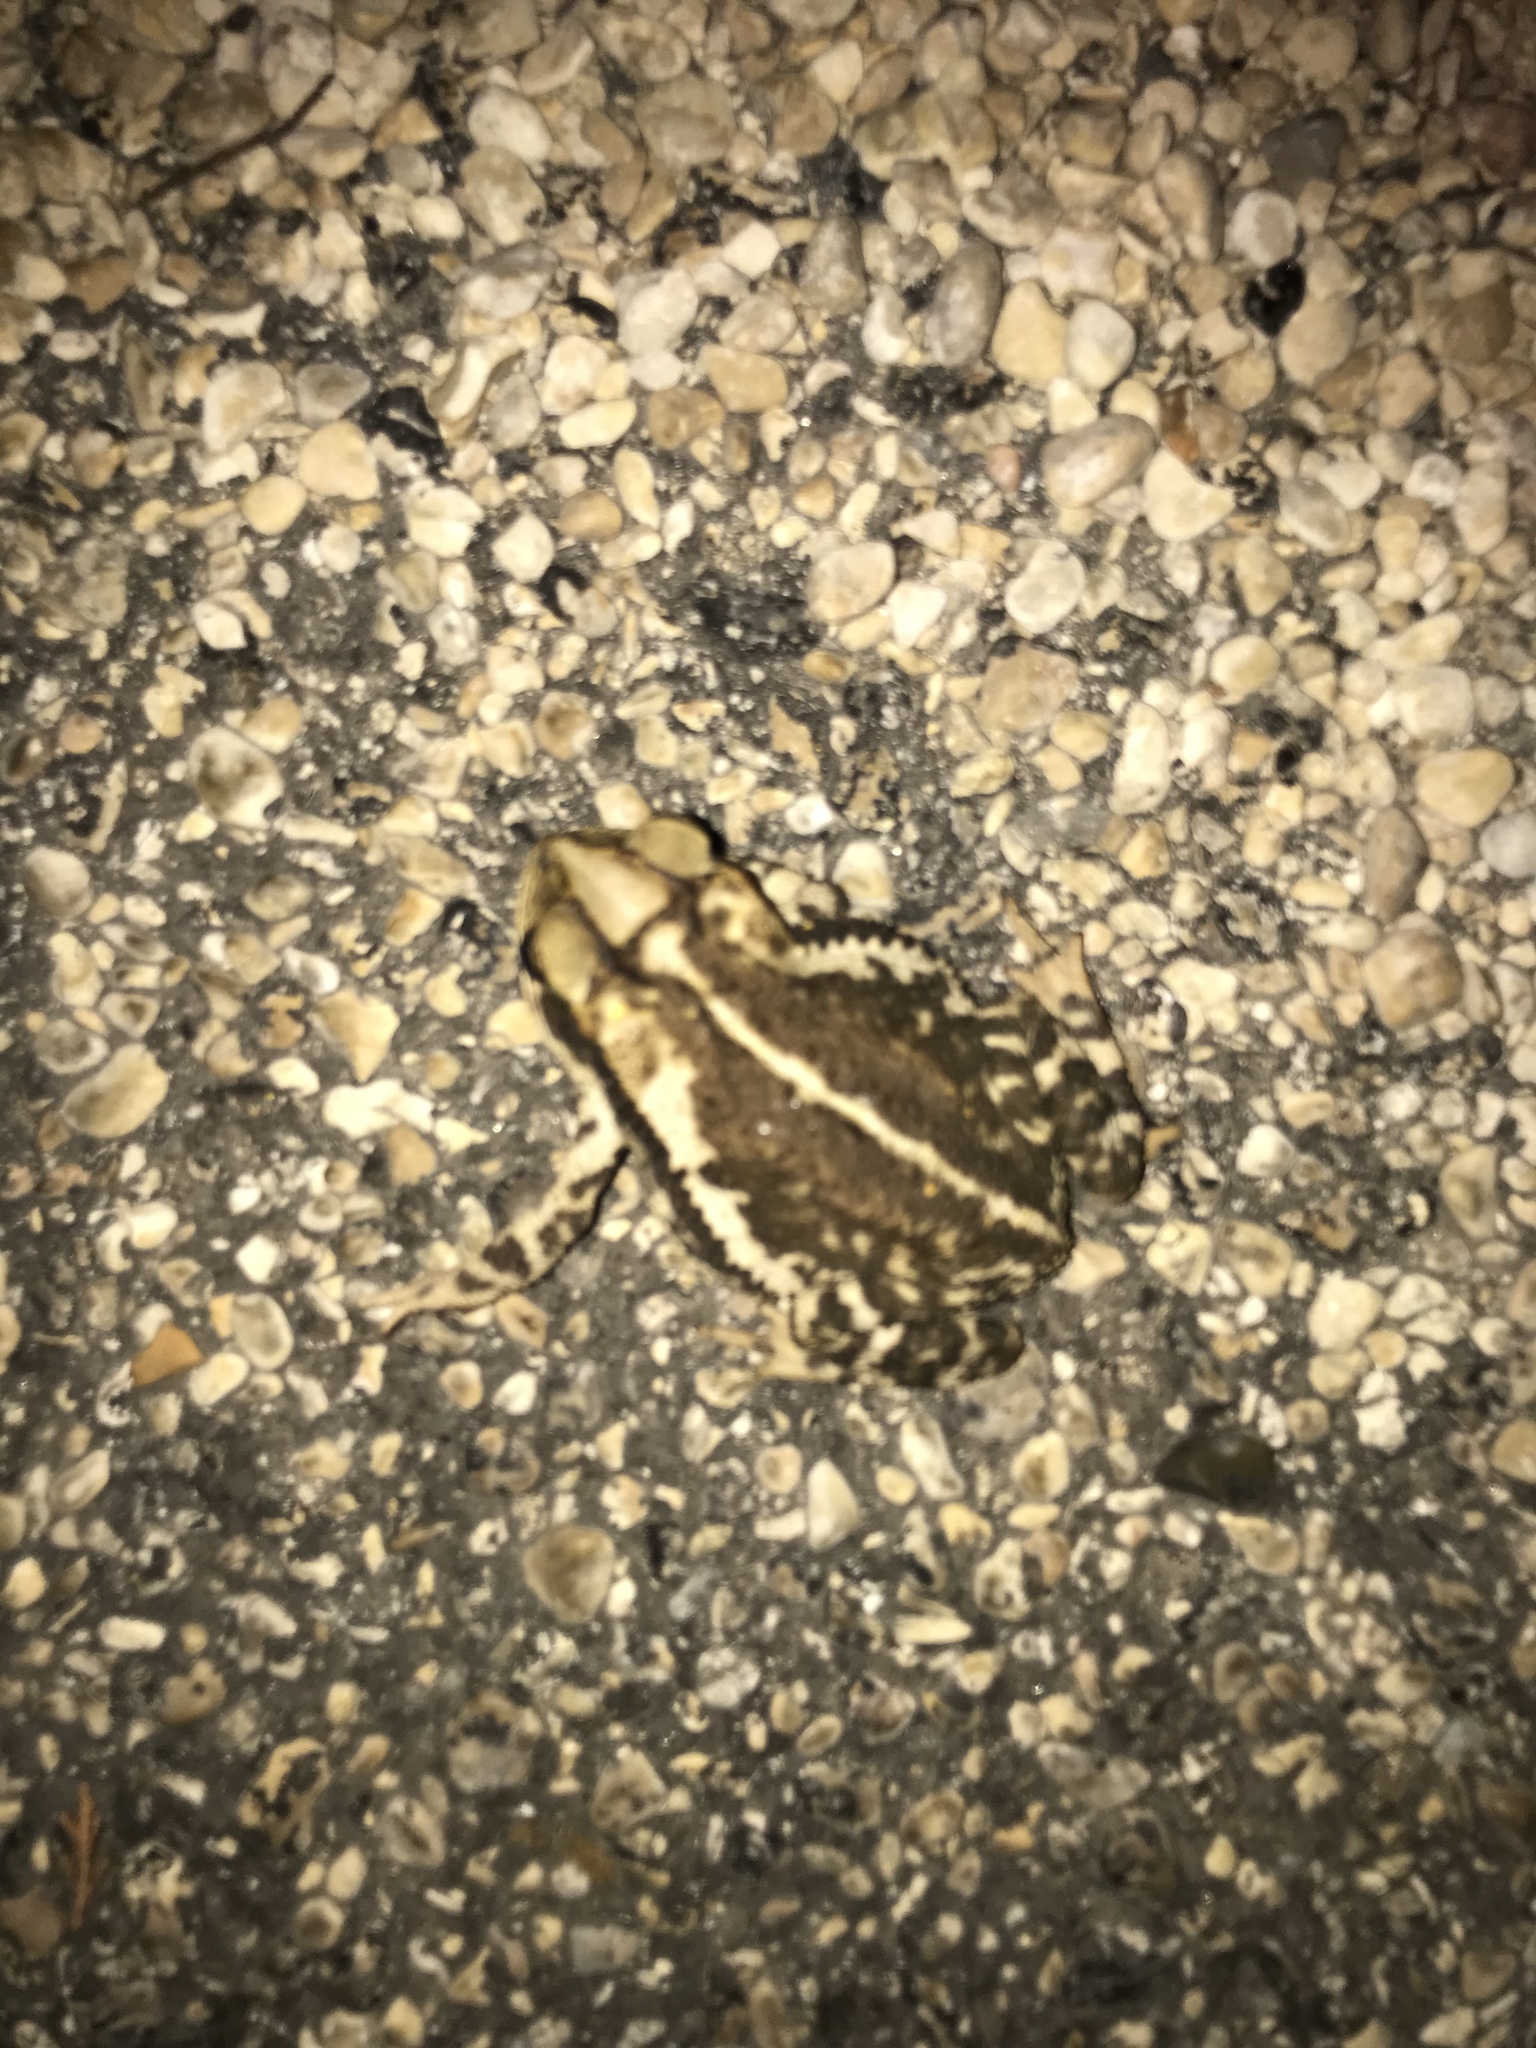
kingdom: Animalia
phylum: Chordata
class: Amphibia
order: Anura
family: Bufonidae
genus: Incilius
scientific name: Incilius nebulifer
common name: Gulf coast toad
